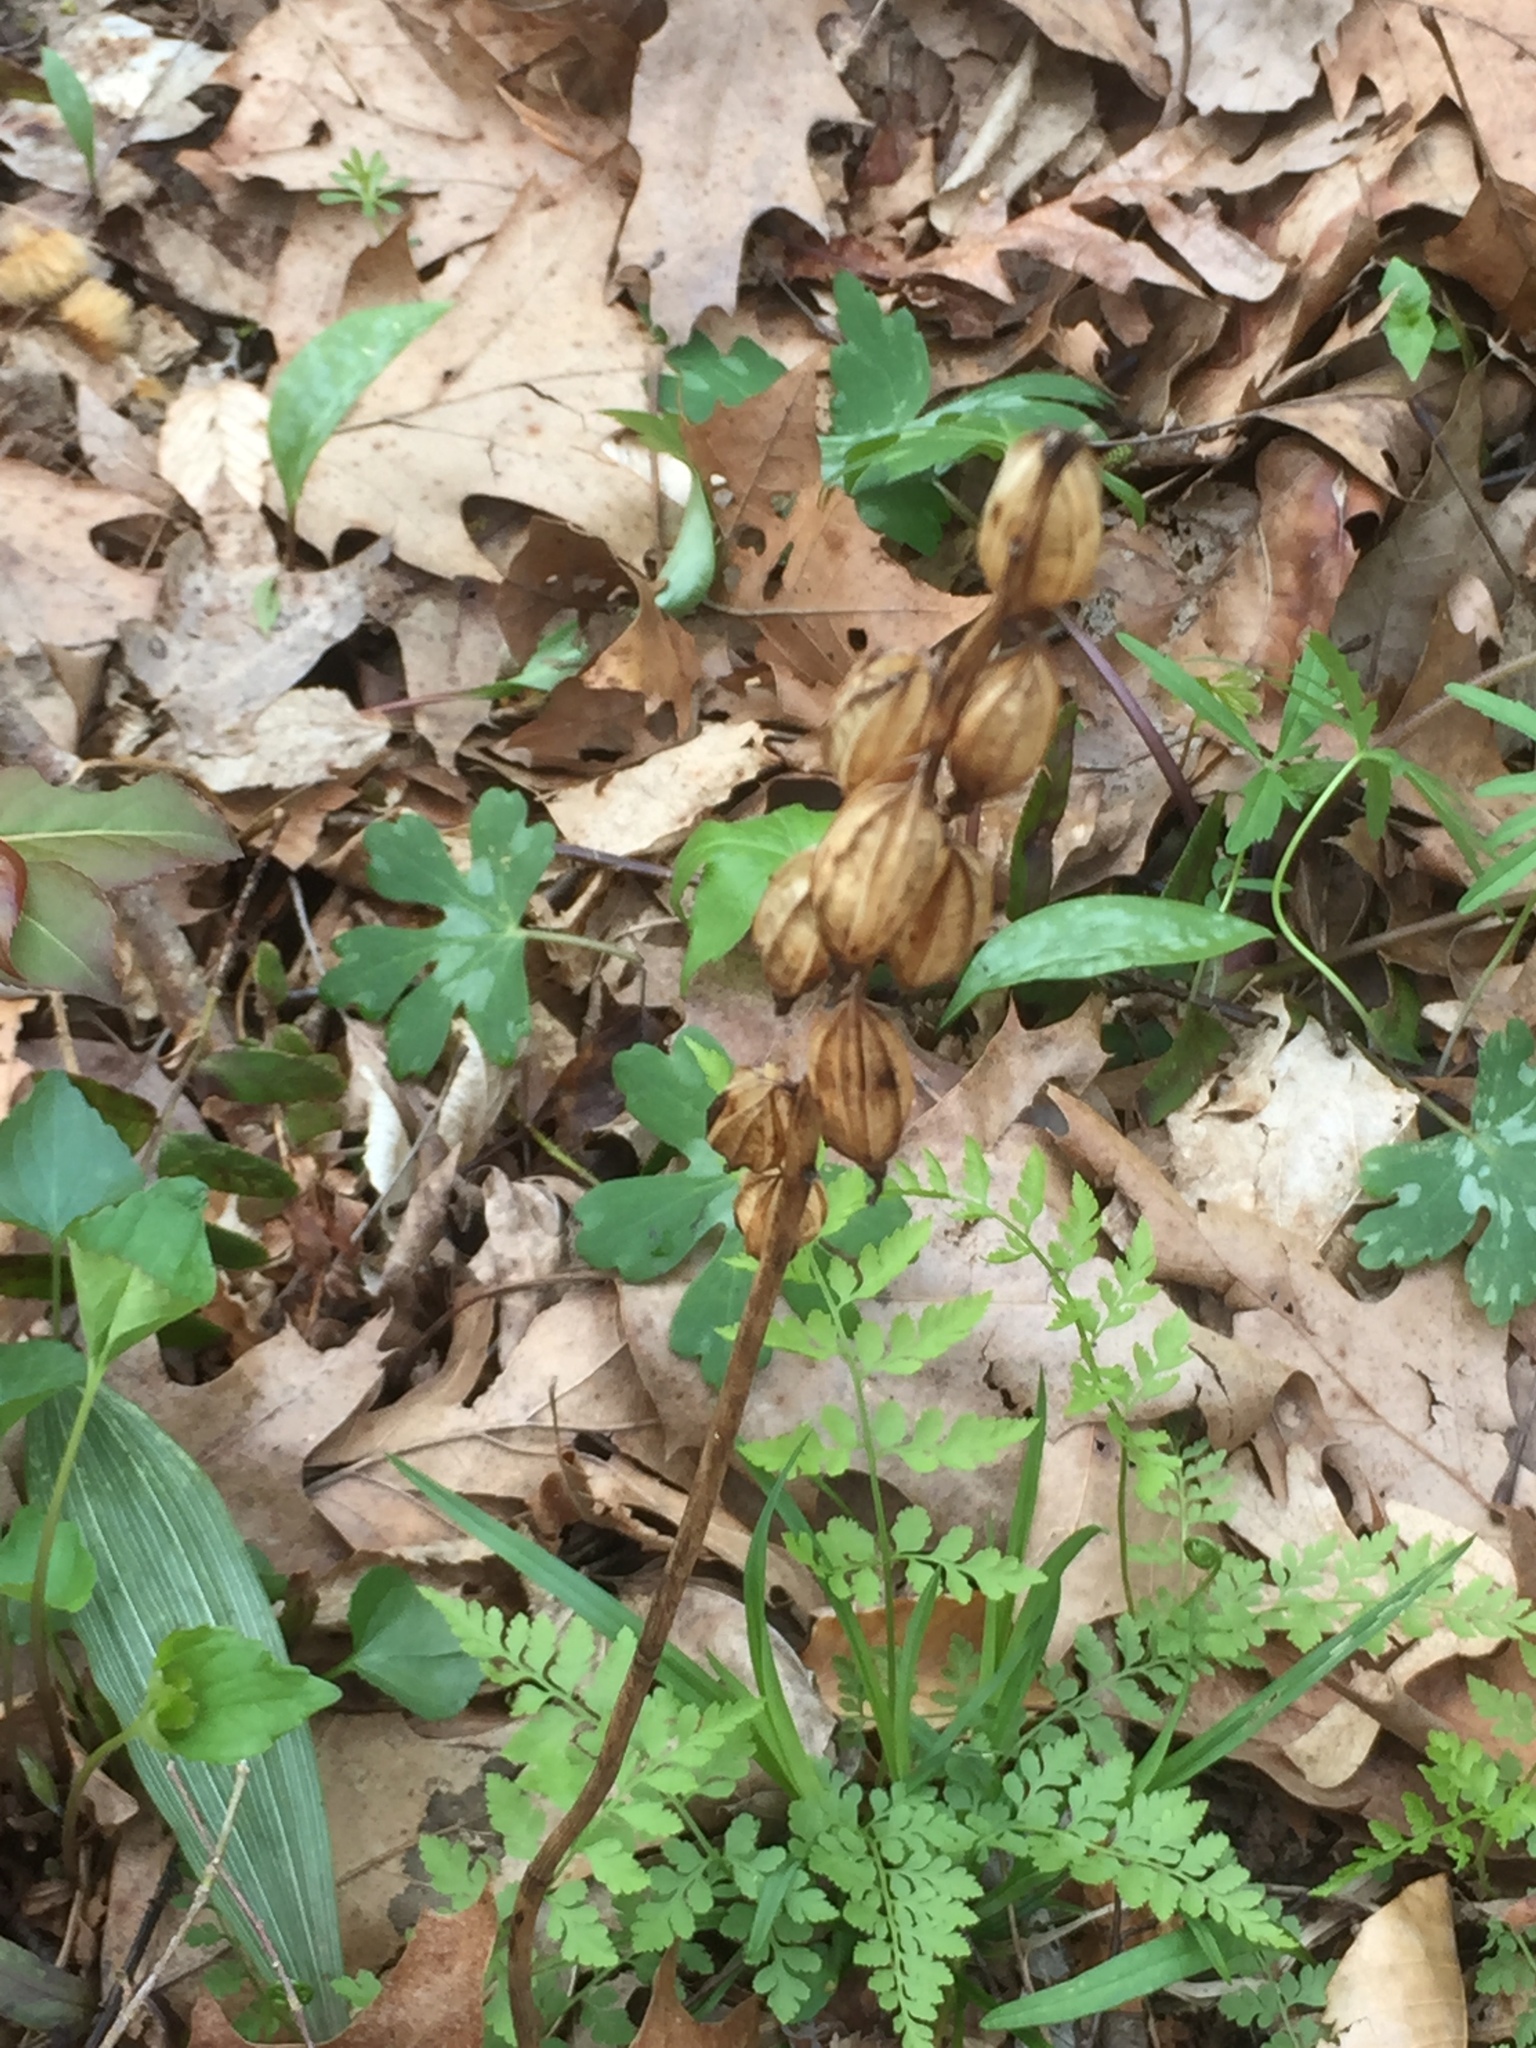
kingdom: Plantae
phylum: Tracheophyta
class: Liliopsida
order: Asparagales
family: Orchidaceae
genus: Aplectrum
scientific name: Aplectrum hyemale
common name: Adam-and-eve
